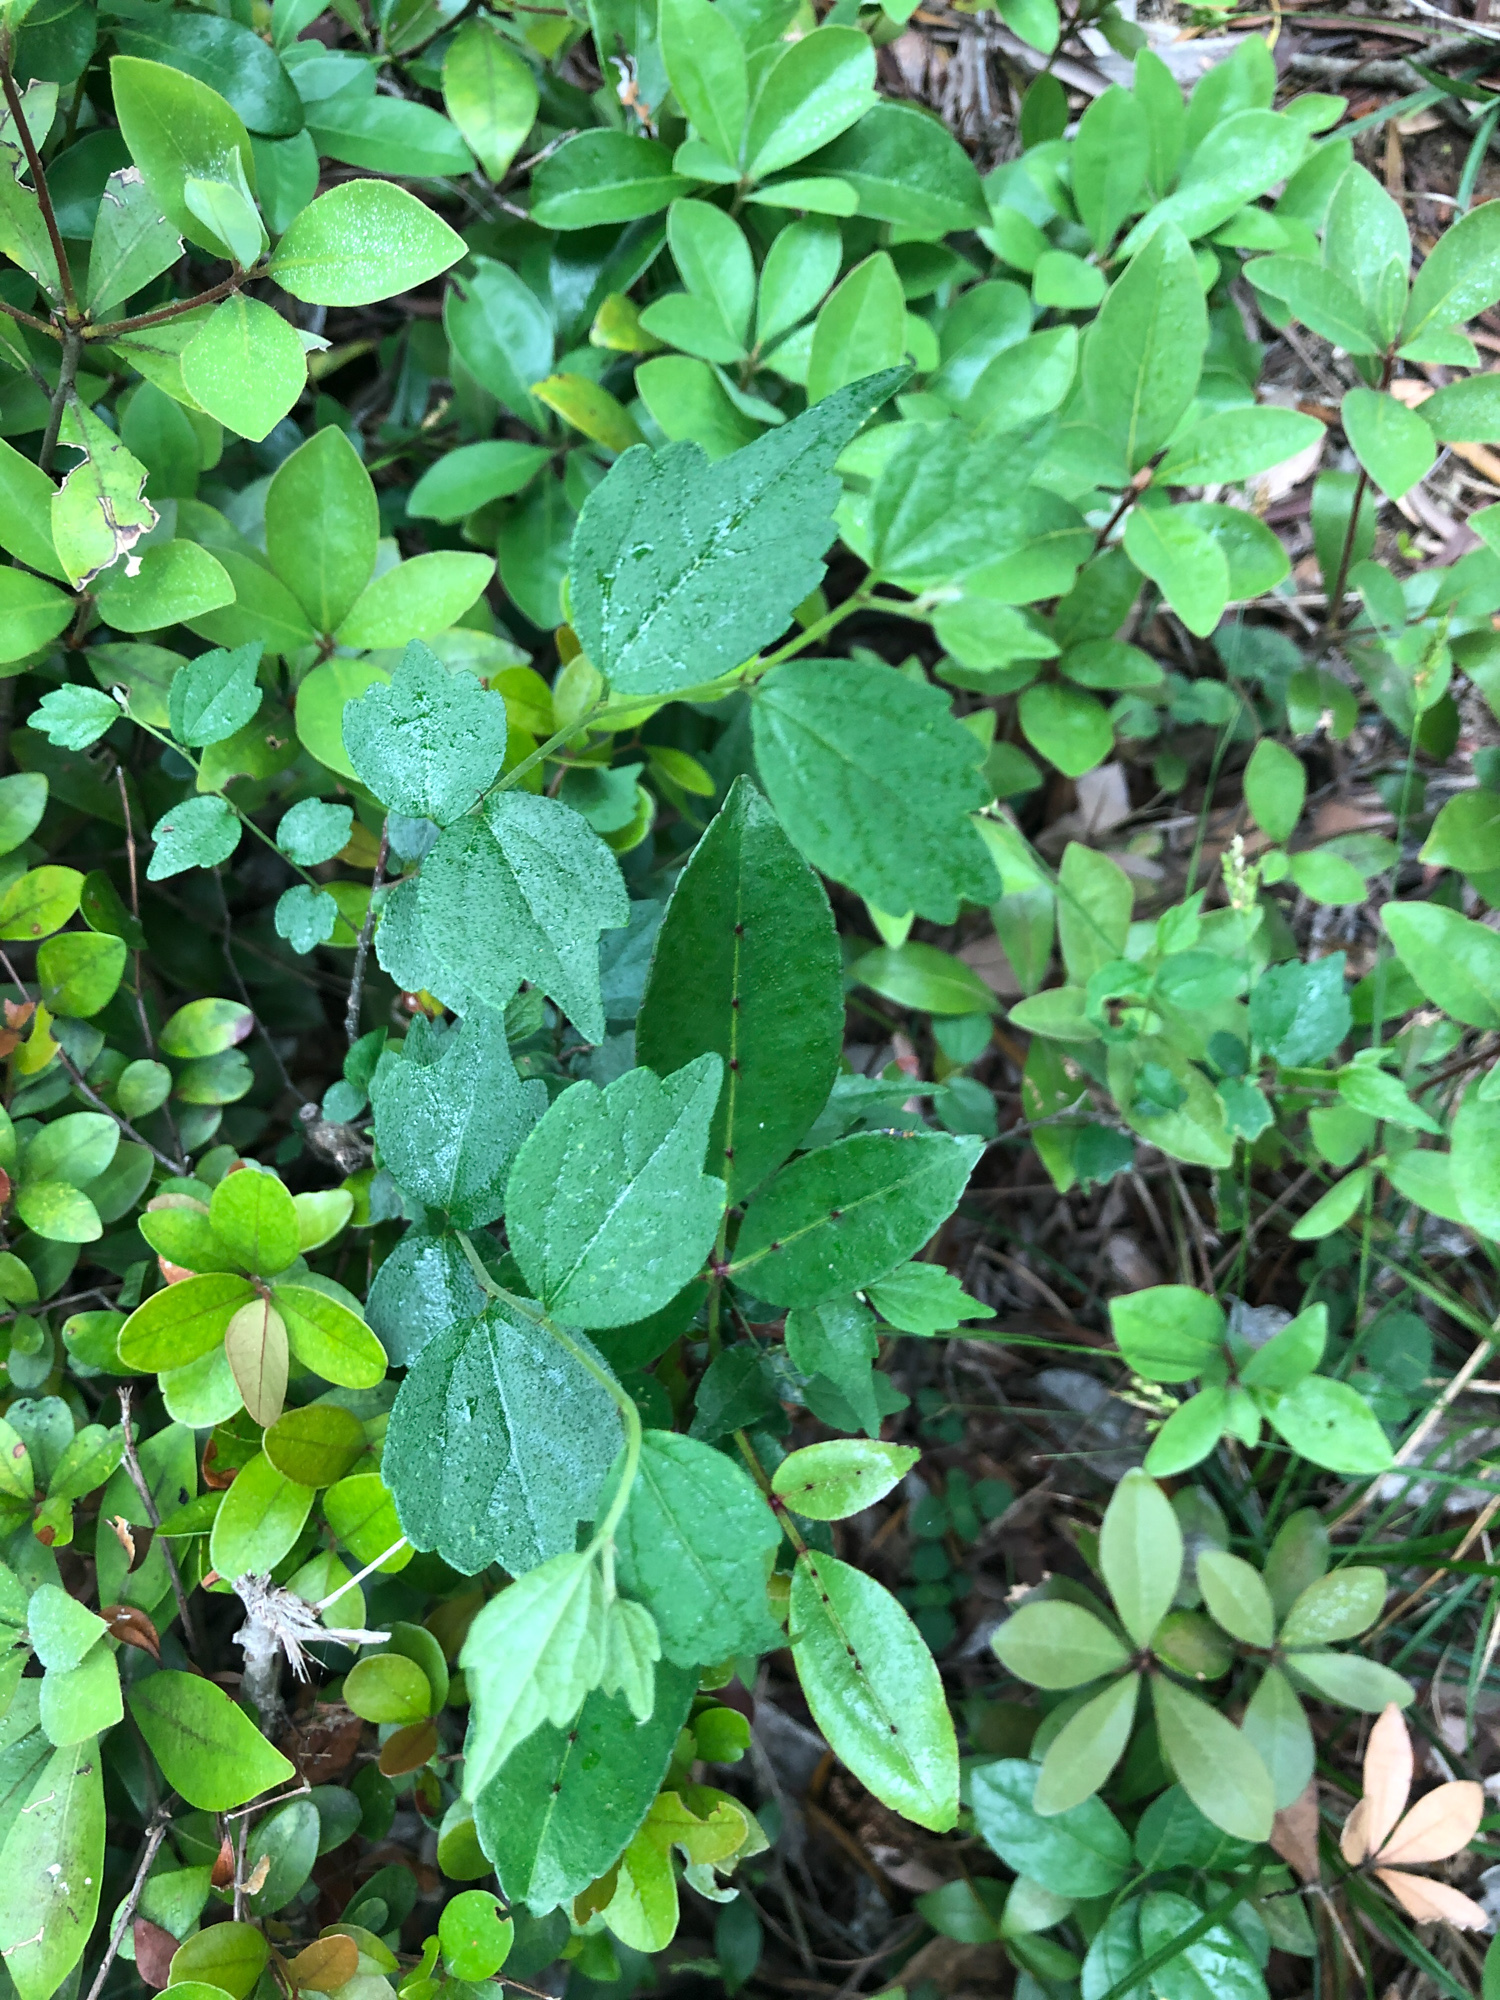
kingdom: Plantae
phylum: Tracheophyta
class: Magnoliopsida
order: Rosales
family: Cannabaceae
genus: Celtis
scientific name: Celtis biondii
